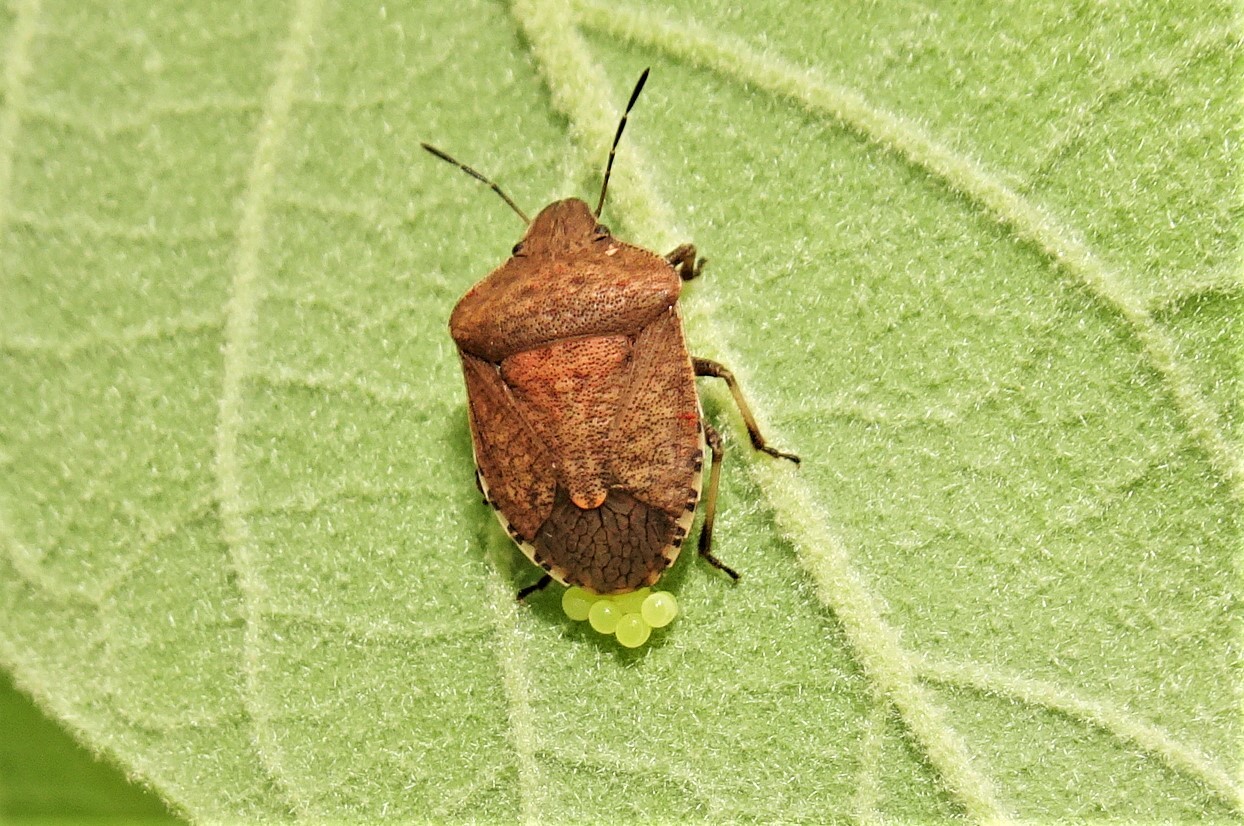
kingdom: Animalia
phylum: Arthropoda
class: Insecta
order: Hemiptera
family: Pentatomidae
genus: Dictyotus
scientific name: Dictyotus caenosus
